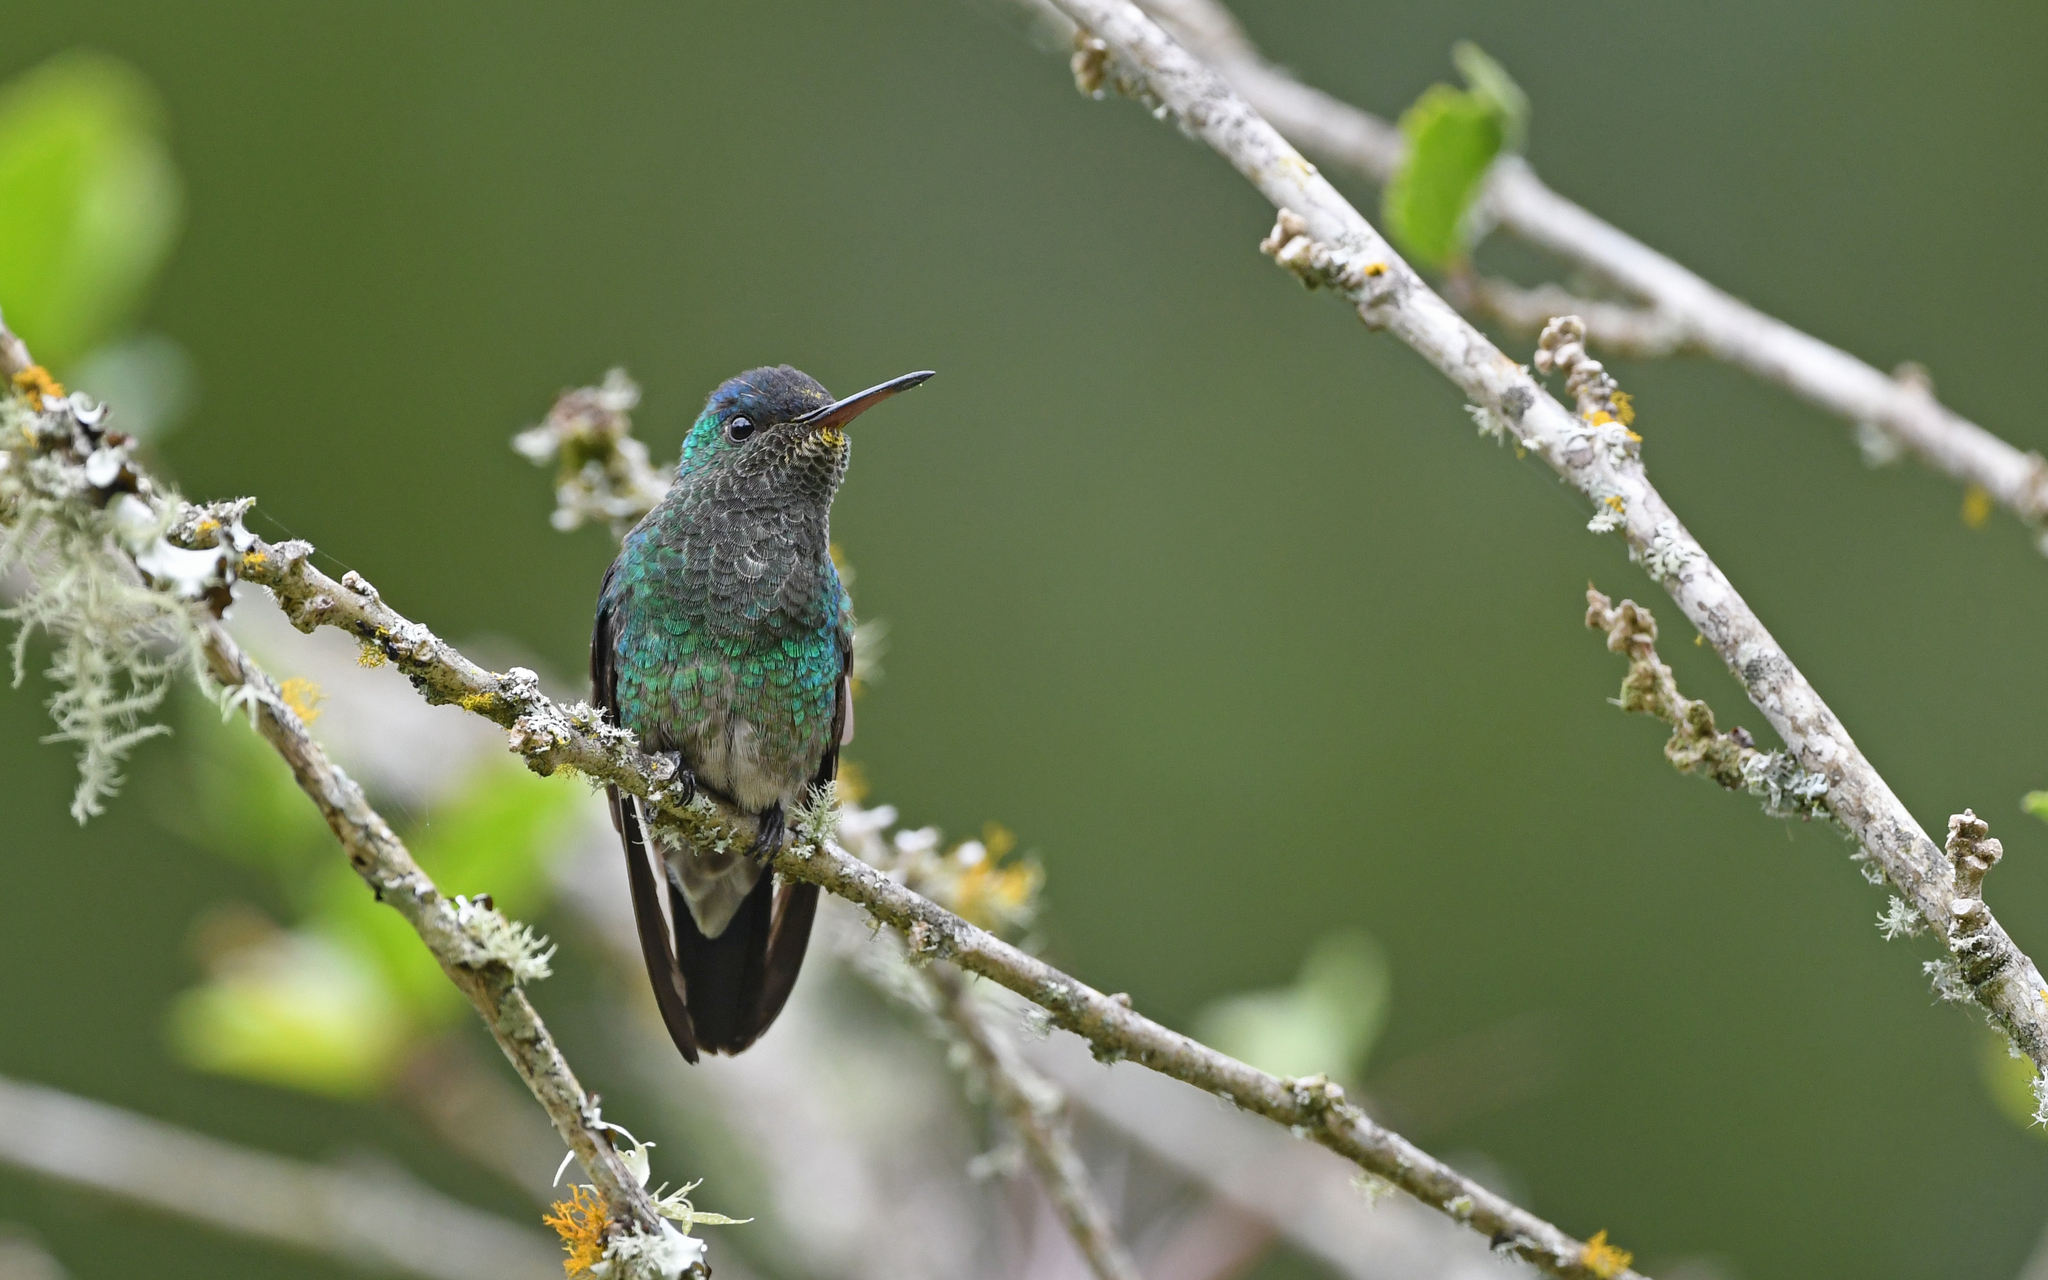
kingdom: Animalia
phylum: Chordata
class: Aves
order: Apodiformes
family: Trochilidae
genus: Saucerottia
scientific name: Saucerottia cyanifrons
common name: Indigo-capped hummingbird
